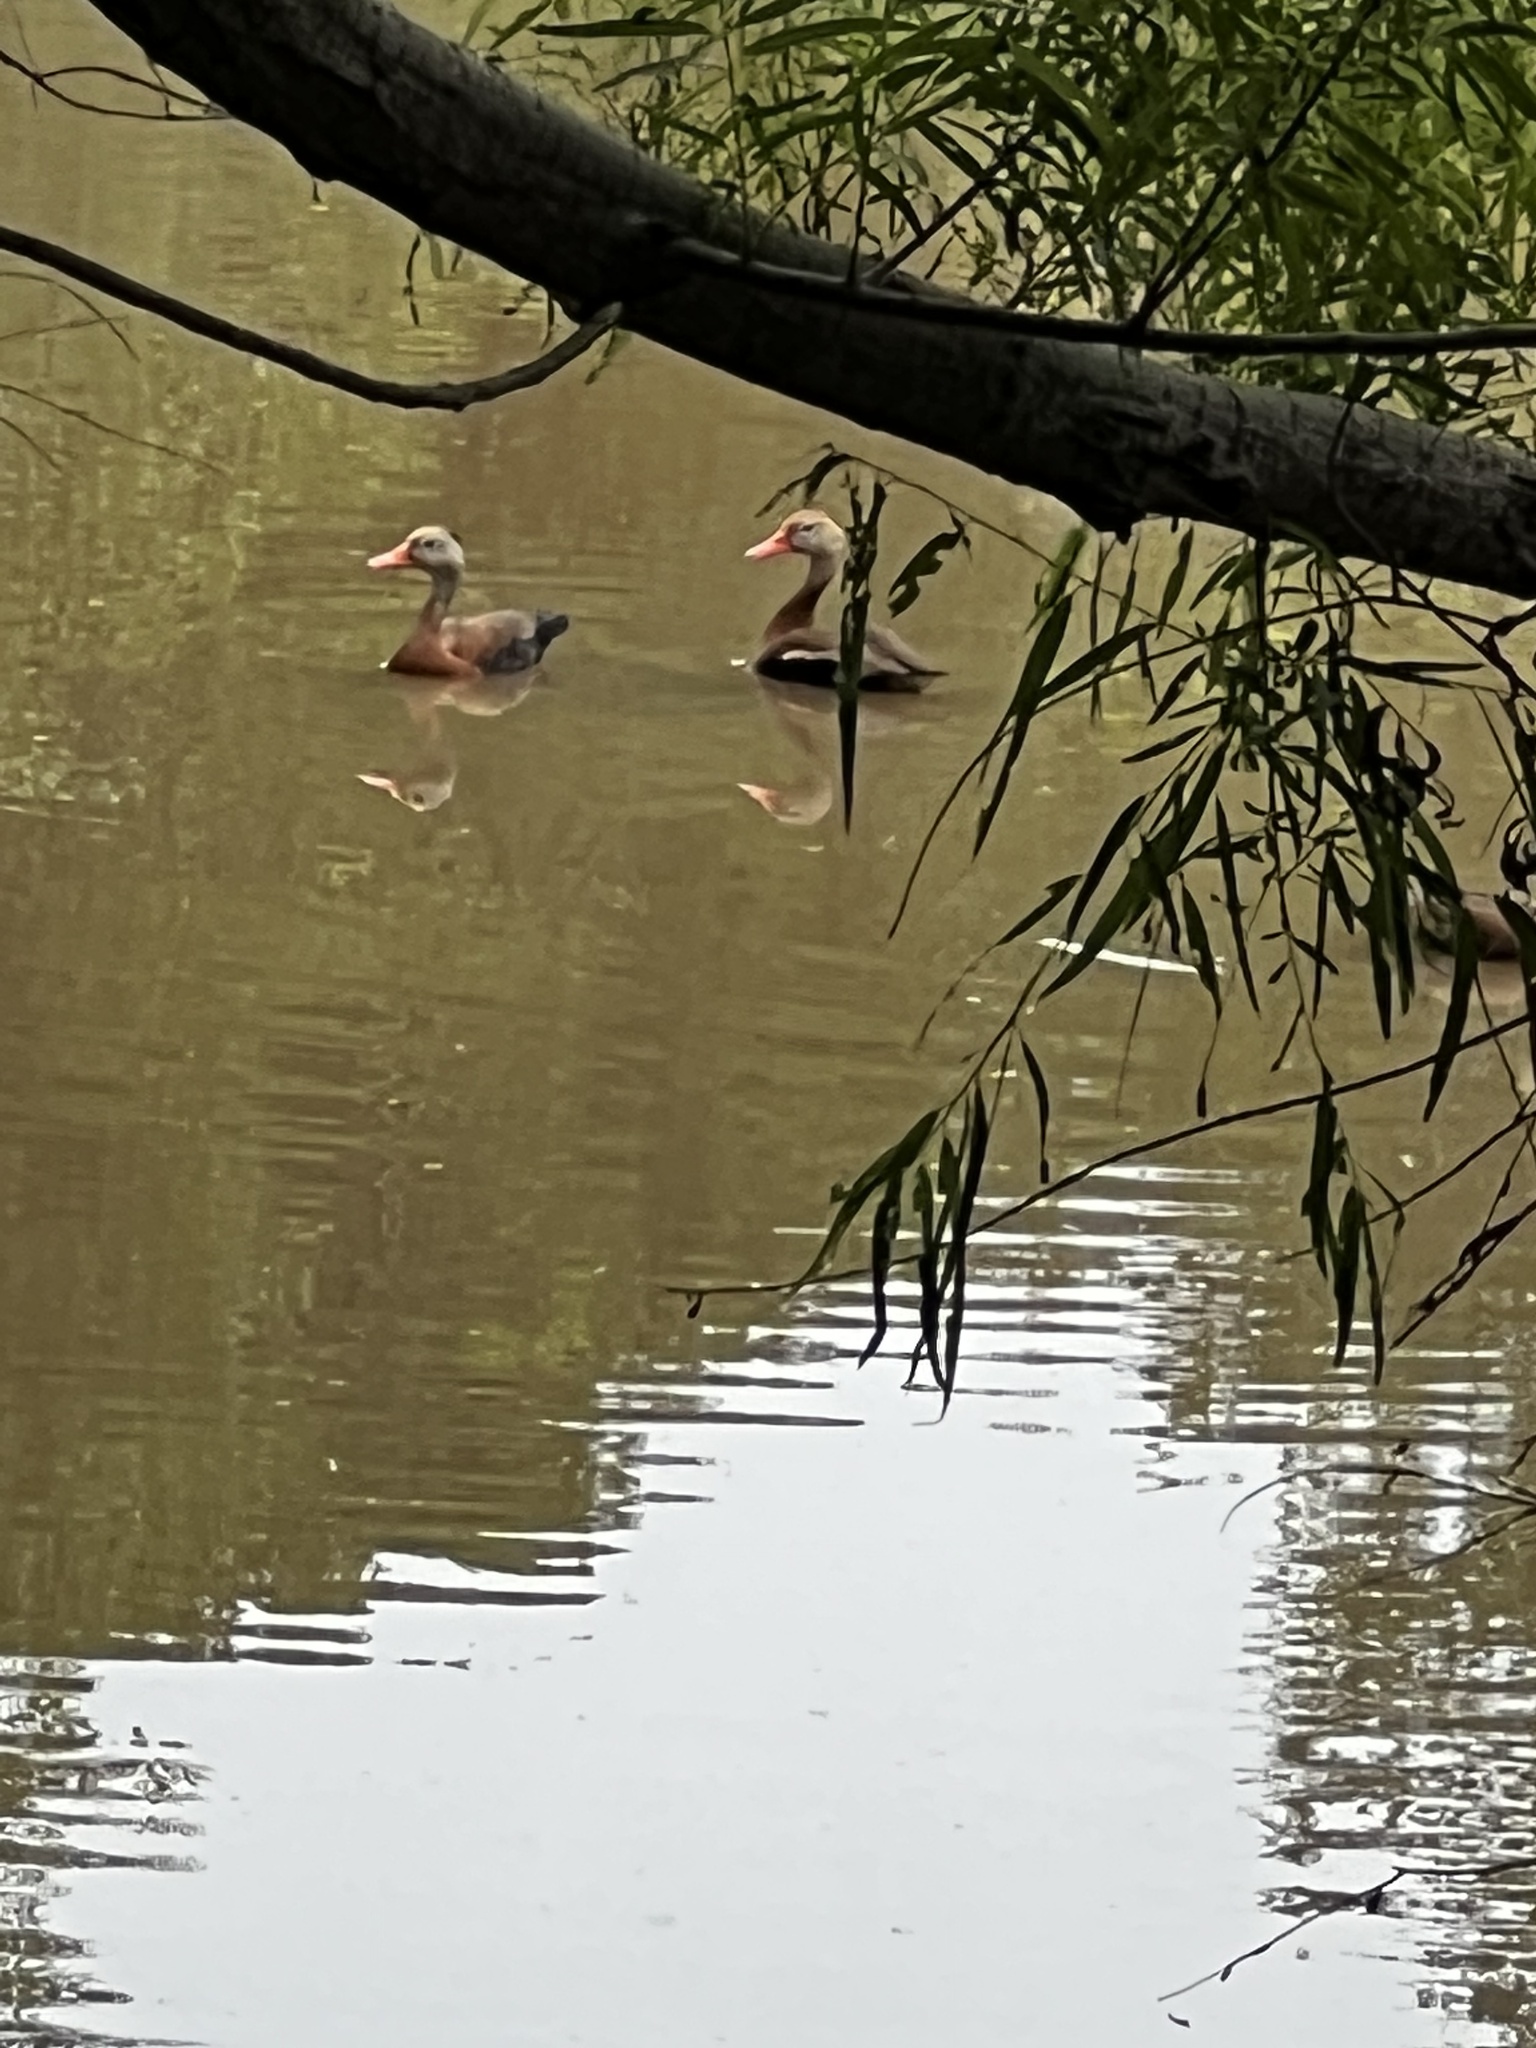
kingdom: Animalia
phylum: Chordata
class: Aves
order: Anseriformes
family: Anatidae
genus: Dendrocygna
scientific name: Dendrocygna autumnalis
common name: Black-bellied whistling duck
